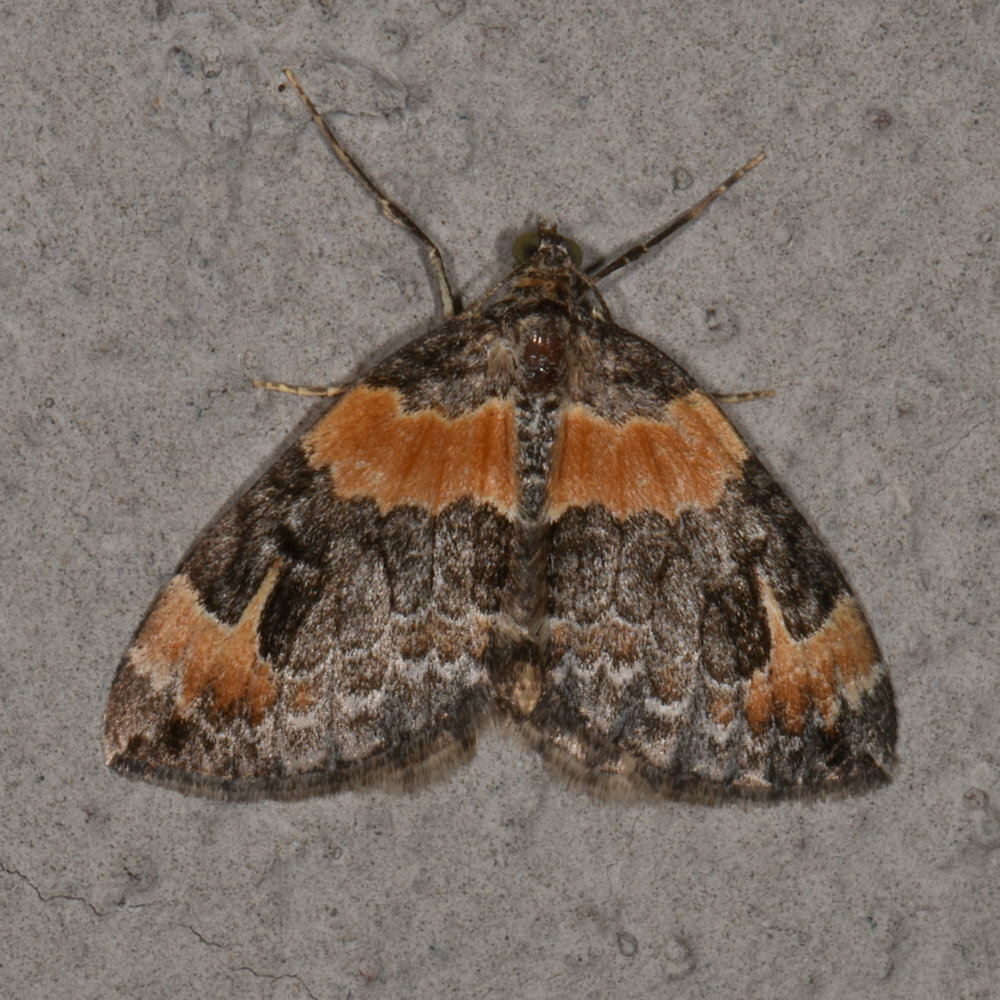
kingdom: Animalia
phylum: Arthropoda
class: Insecta
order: Lepidoptera
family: Geometridae
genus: Dysstroma
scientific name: Dysstroma hersiliata
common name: Orange-barred carpet
